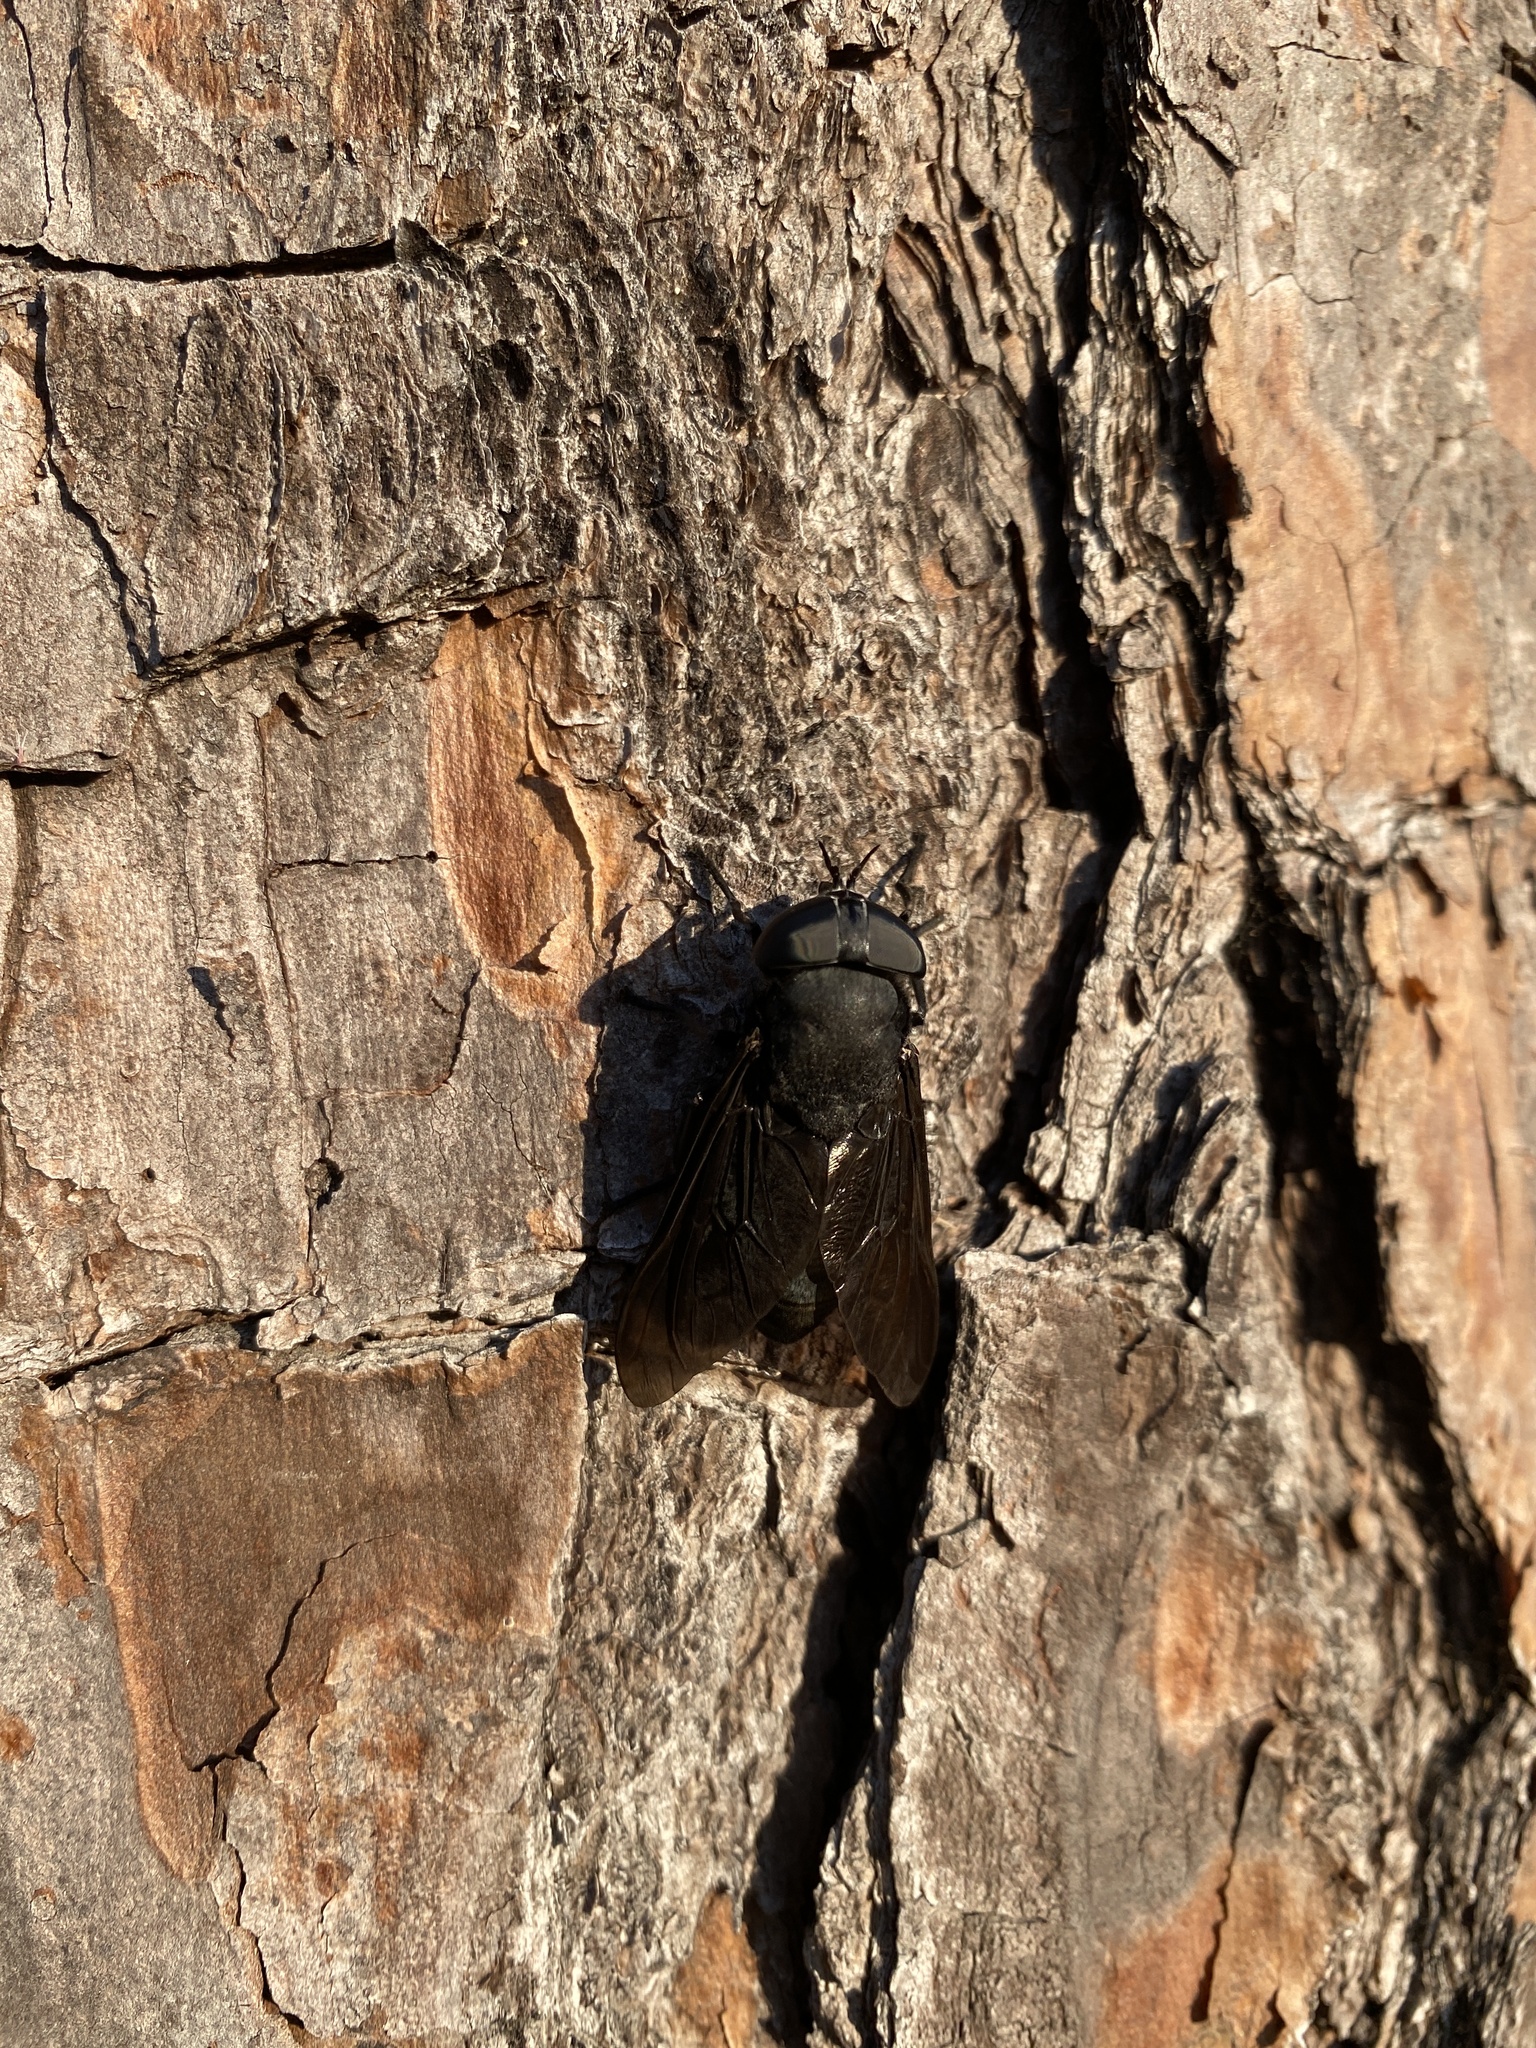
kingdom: Animalia
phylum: Arthropoda
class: Insecta
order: Diptera
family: Tabanidae
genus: Tabanus
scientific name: Tabanus atratus
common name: Black horse fly
